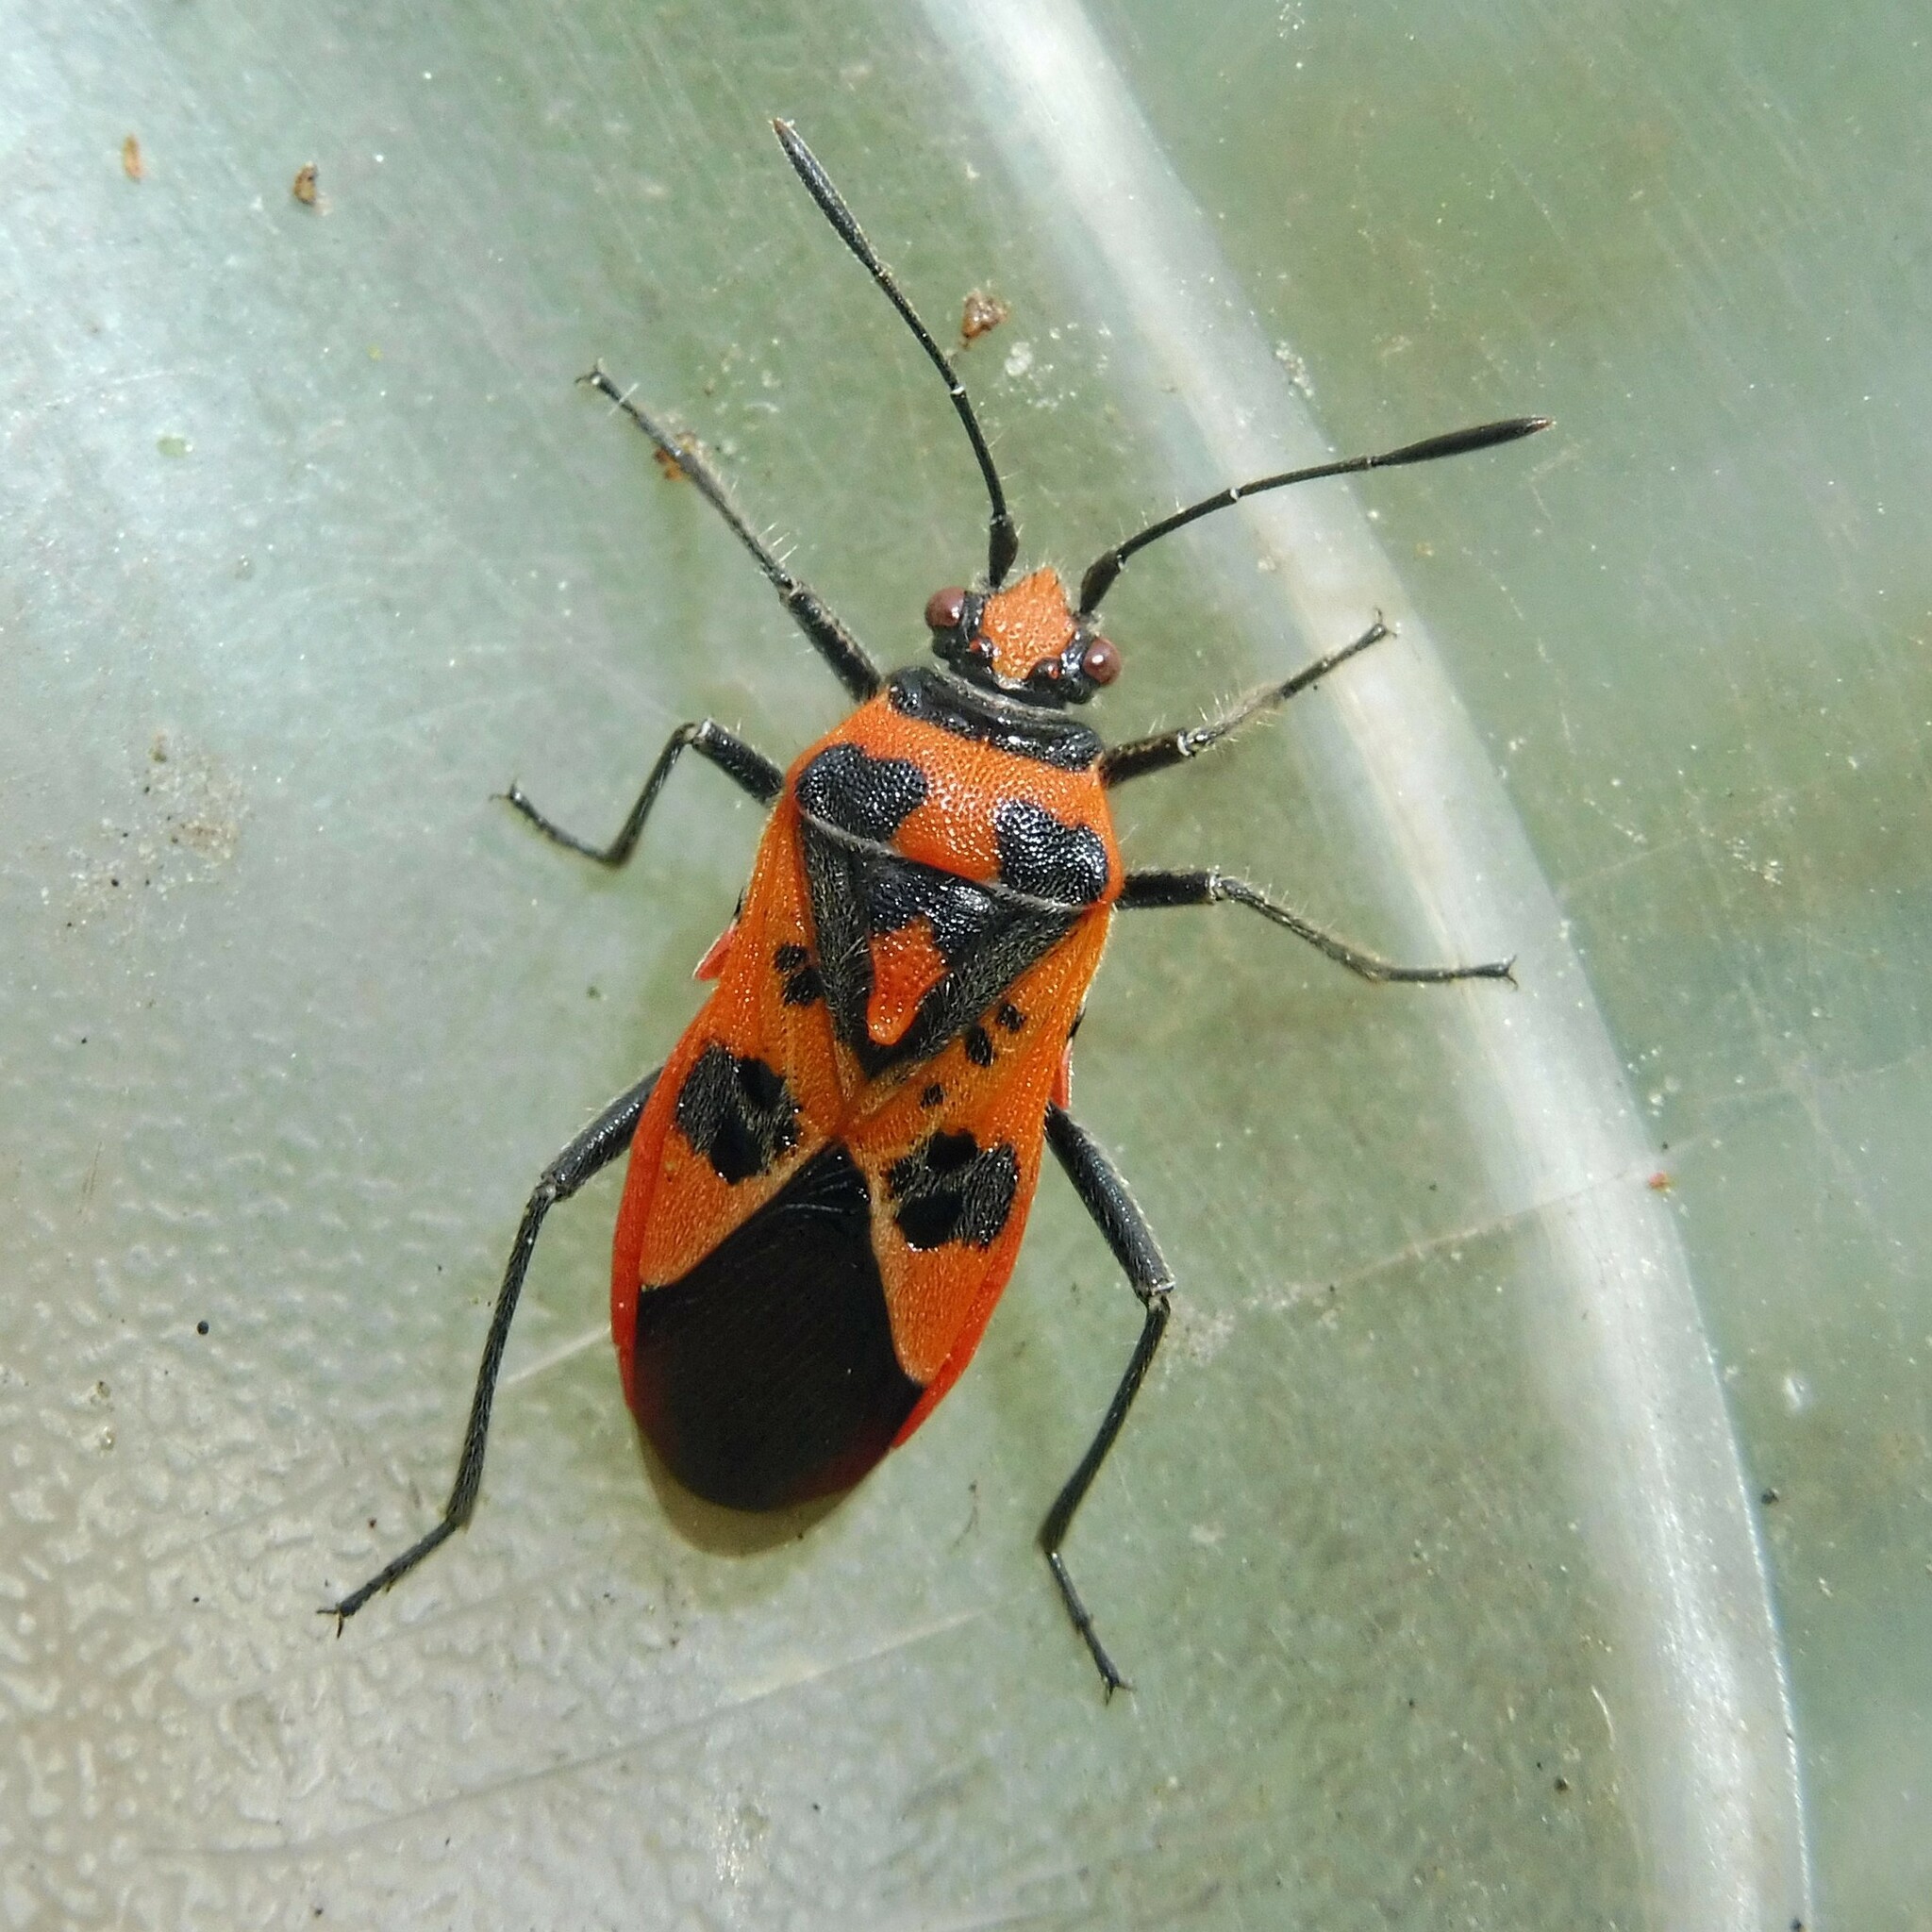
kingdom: Animalia
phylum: Arthropoda
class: Insecta
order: Hemiptera
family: Rhopalidae
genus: Corizus
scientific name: Corizus hyoscyami
